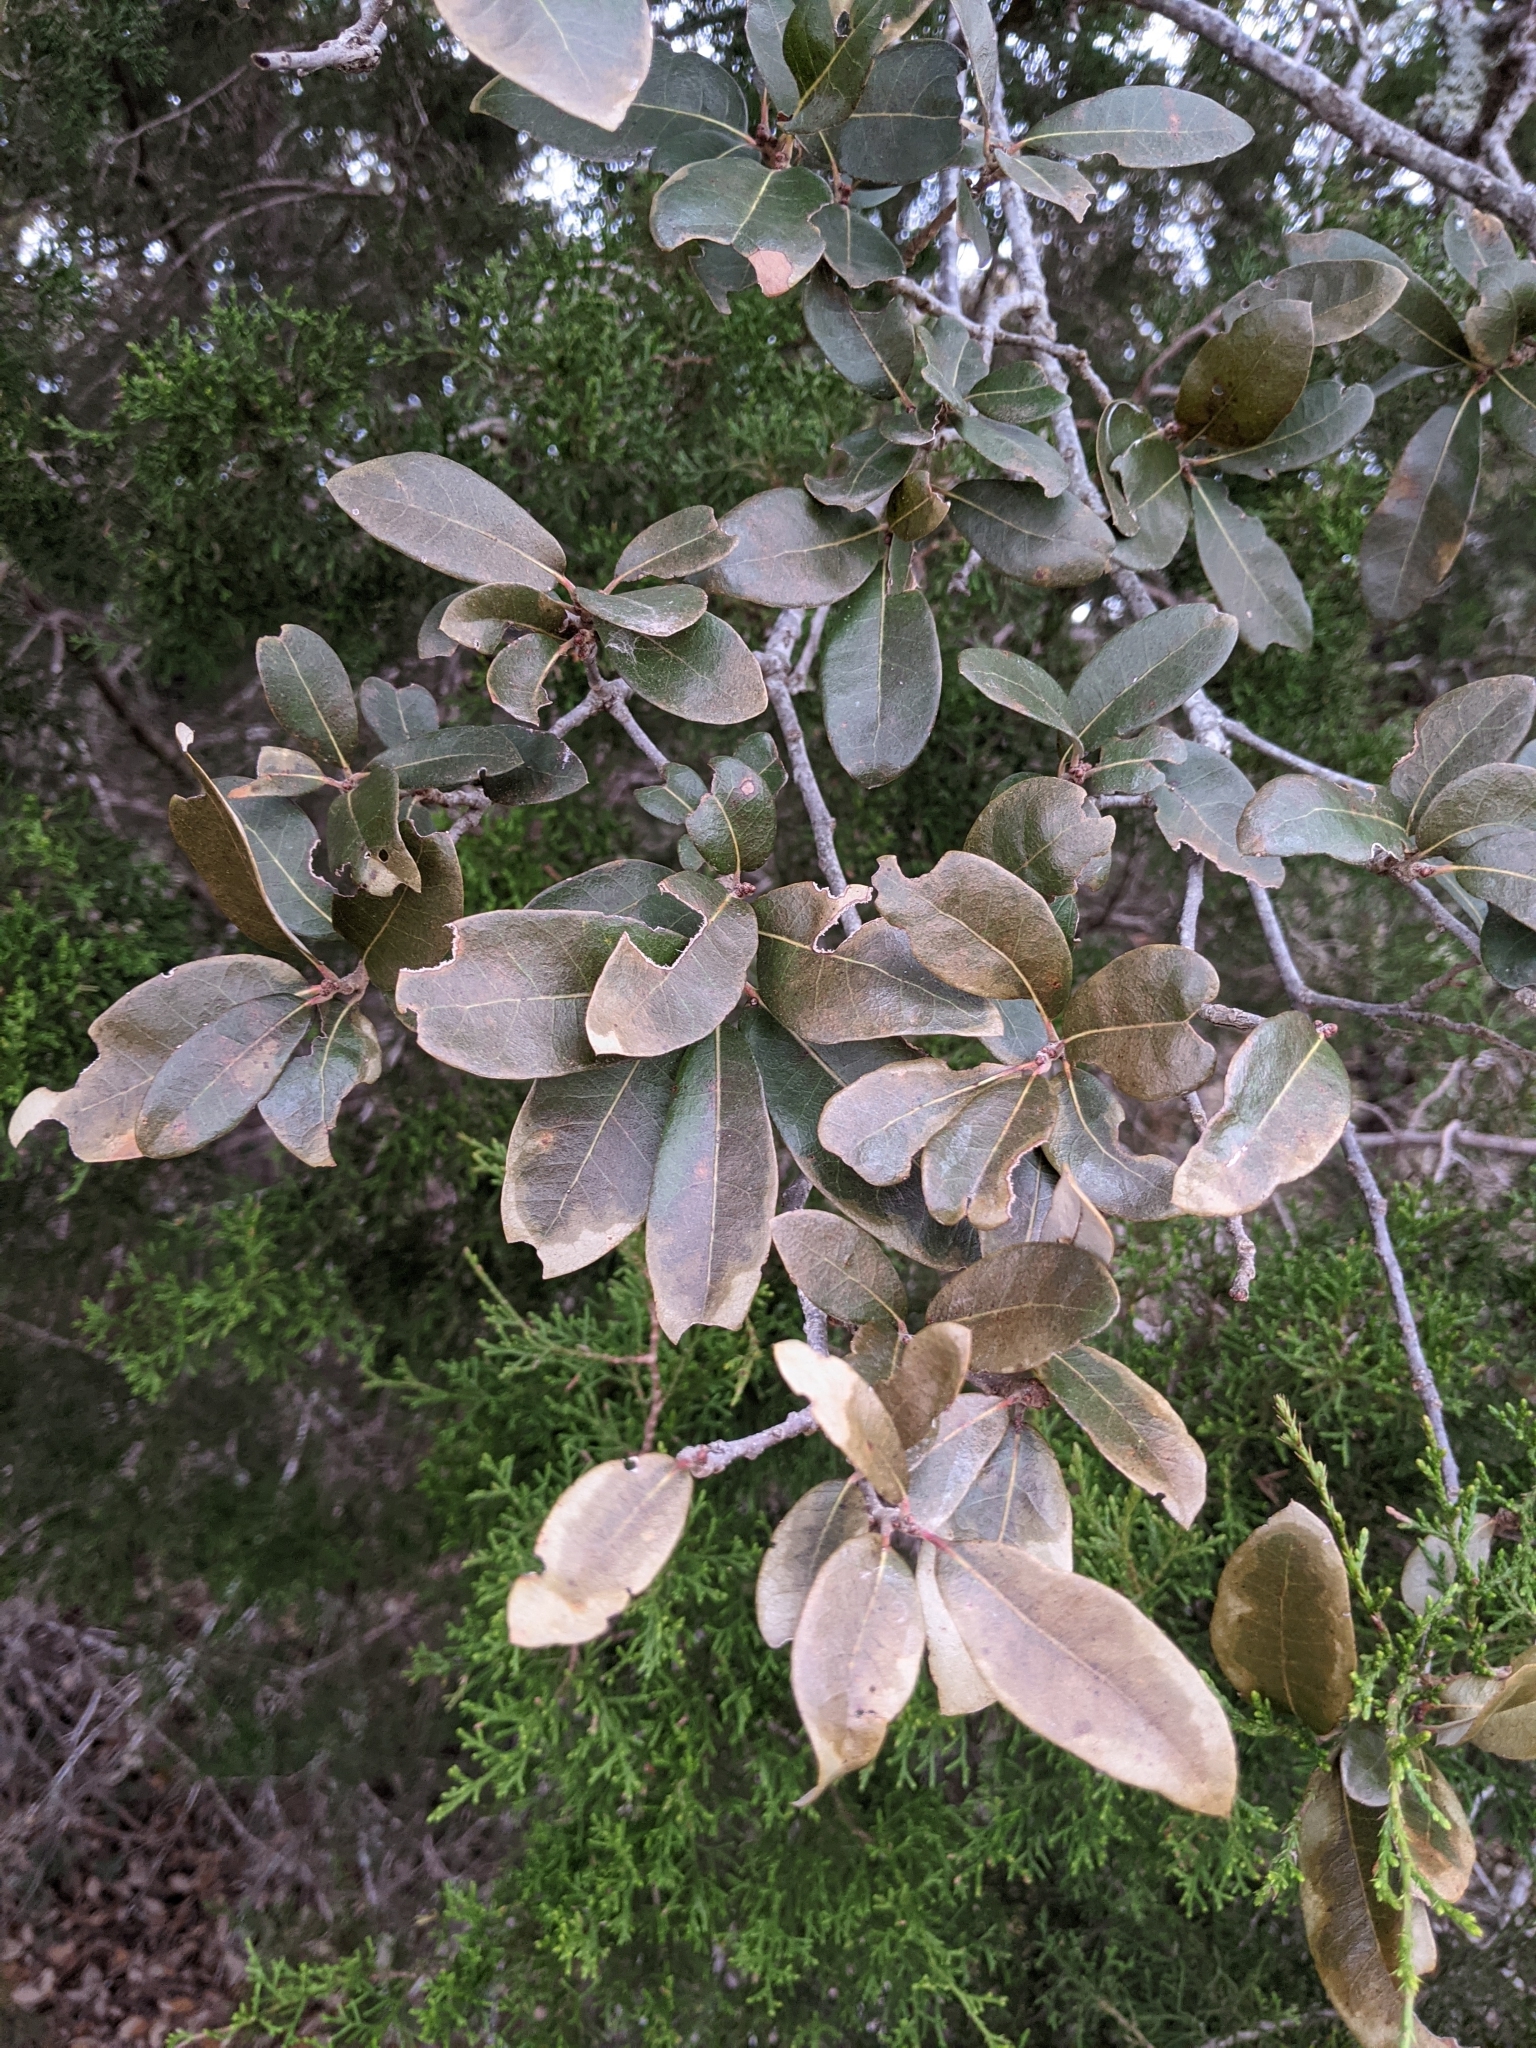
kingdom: Plantae
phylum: Tracheophyta
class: Magnoliopsida
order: Fagales
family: Fagaceae
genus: Quercus
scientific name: Quercus fusiformis
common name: Texas live oak
